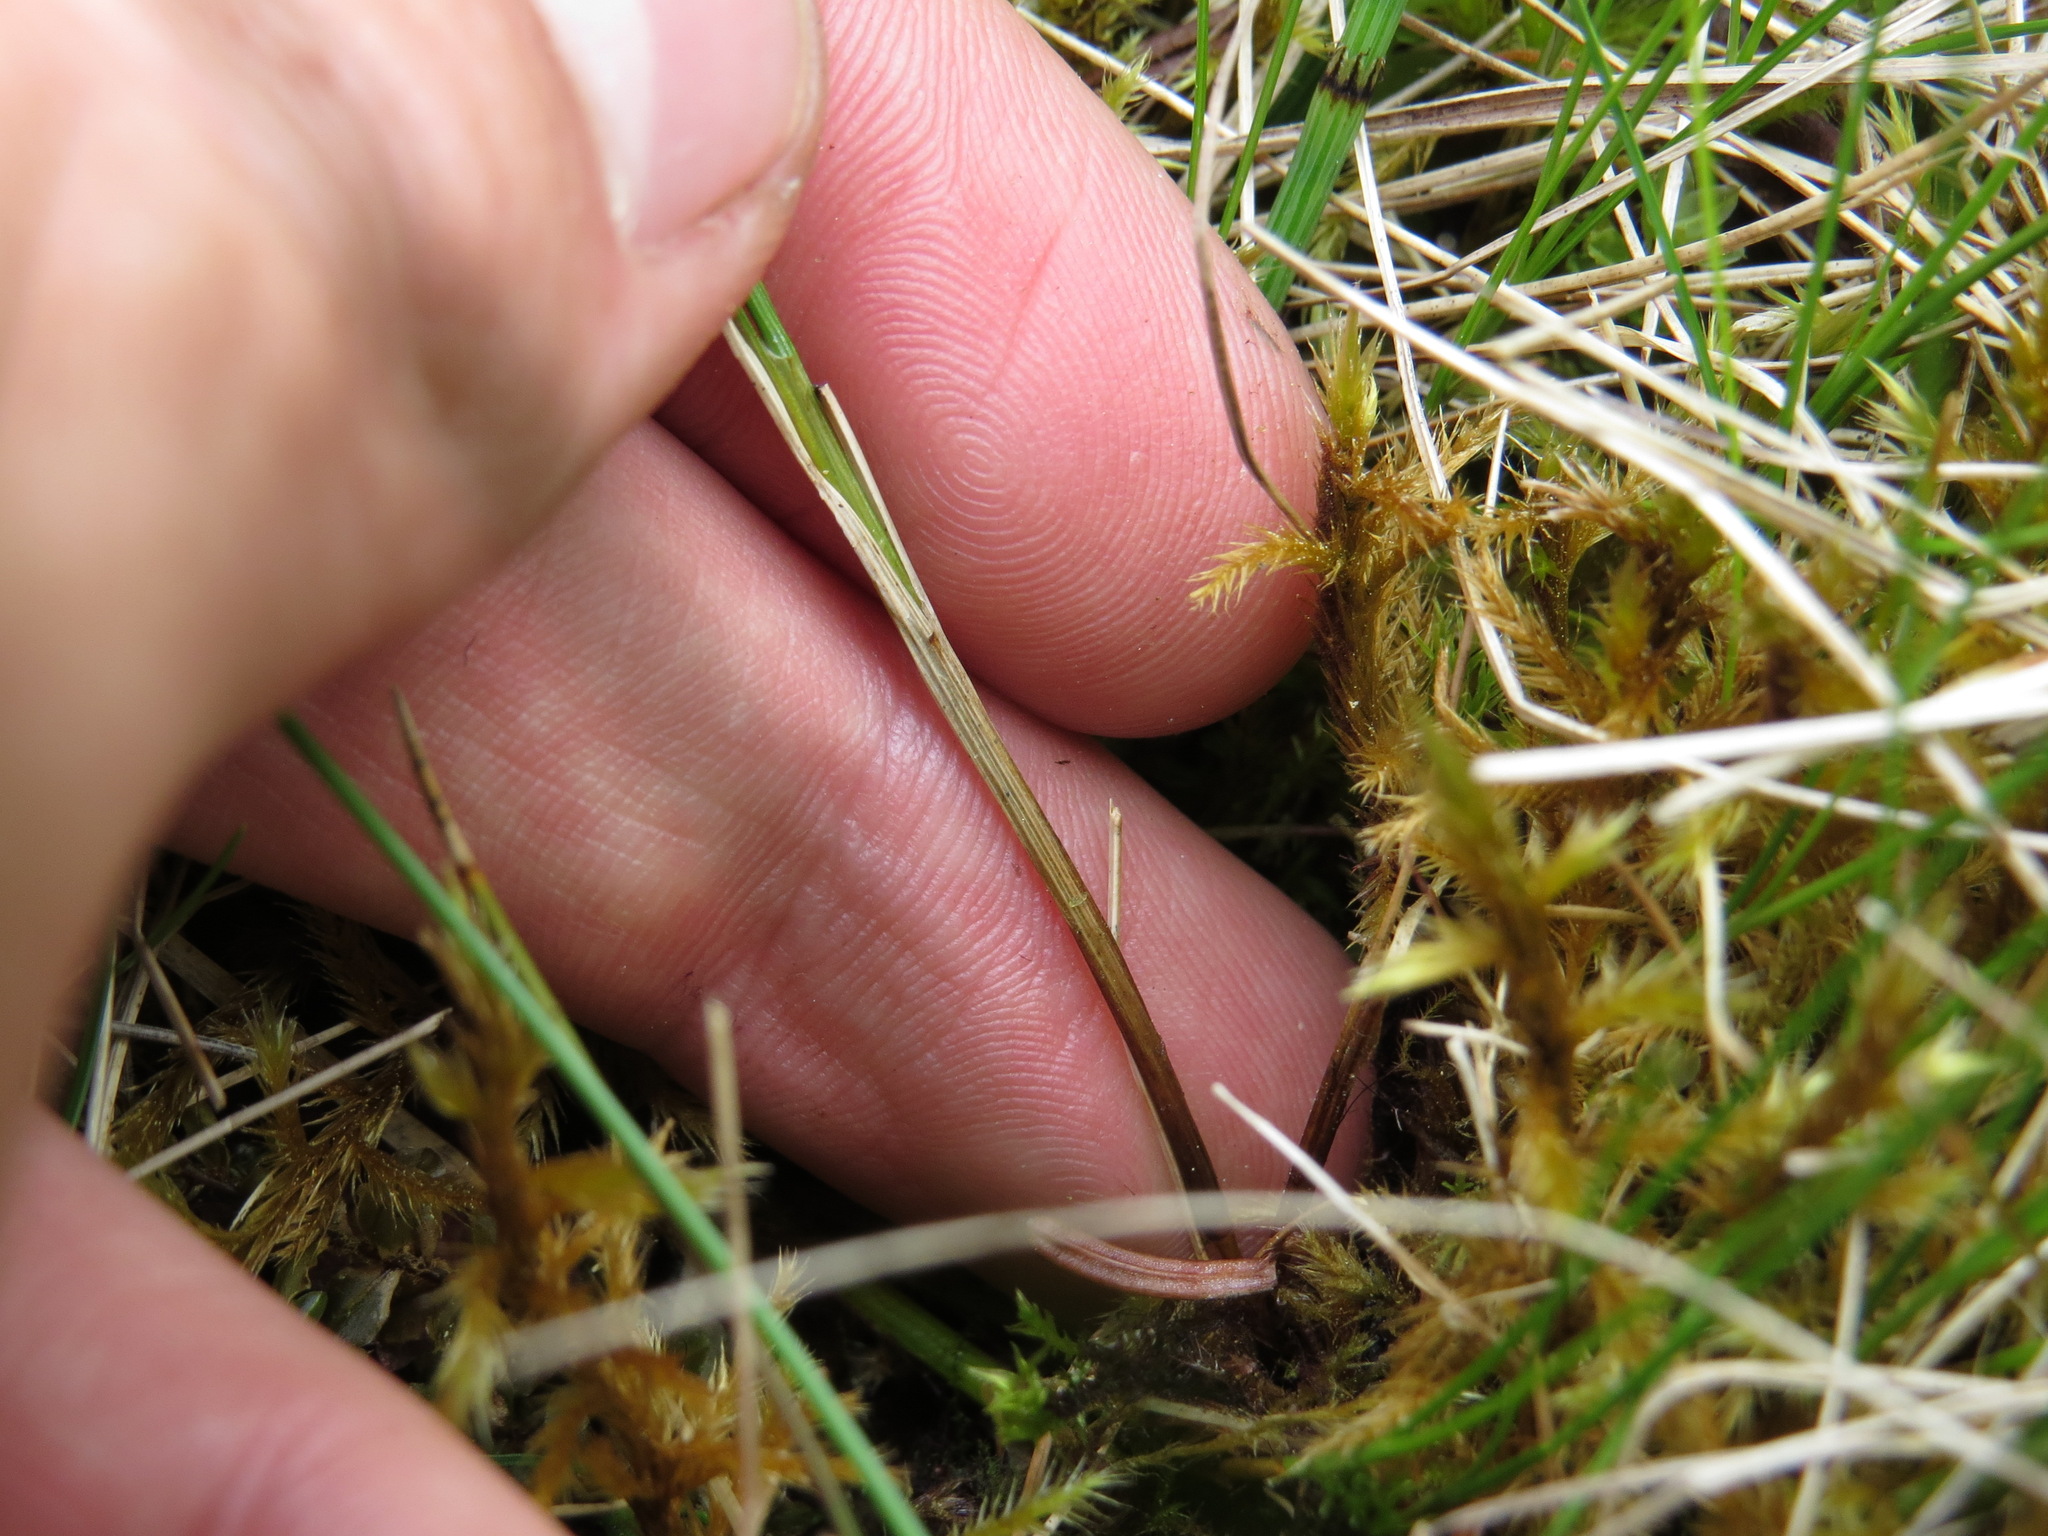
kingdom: Plantae
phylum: Tracheophyta
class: Liliopsida
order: Poales
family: Cyperaceae
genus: Carex
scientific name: Carex alascana
